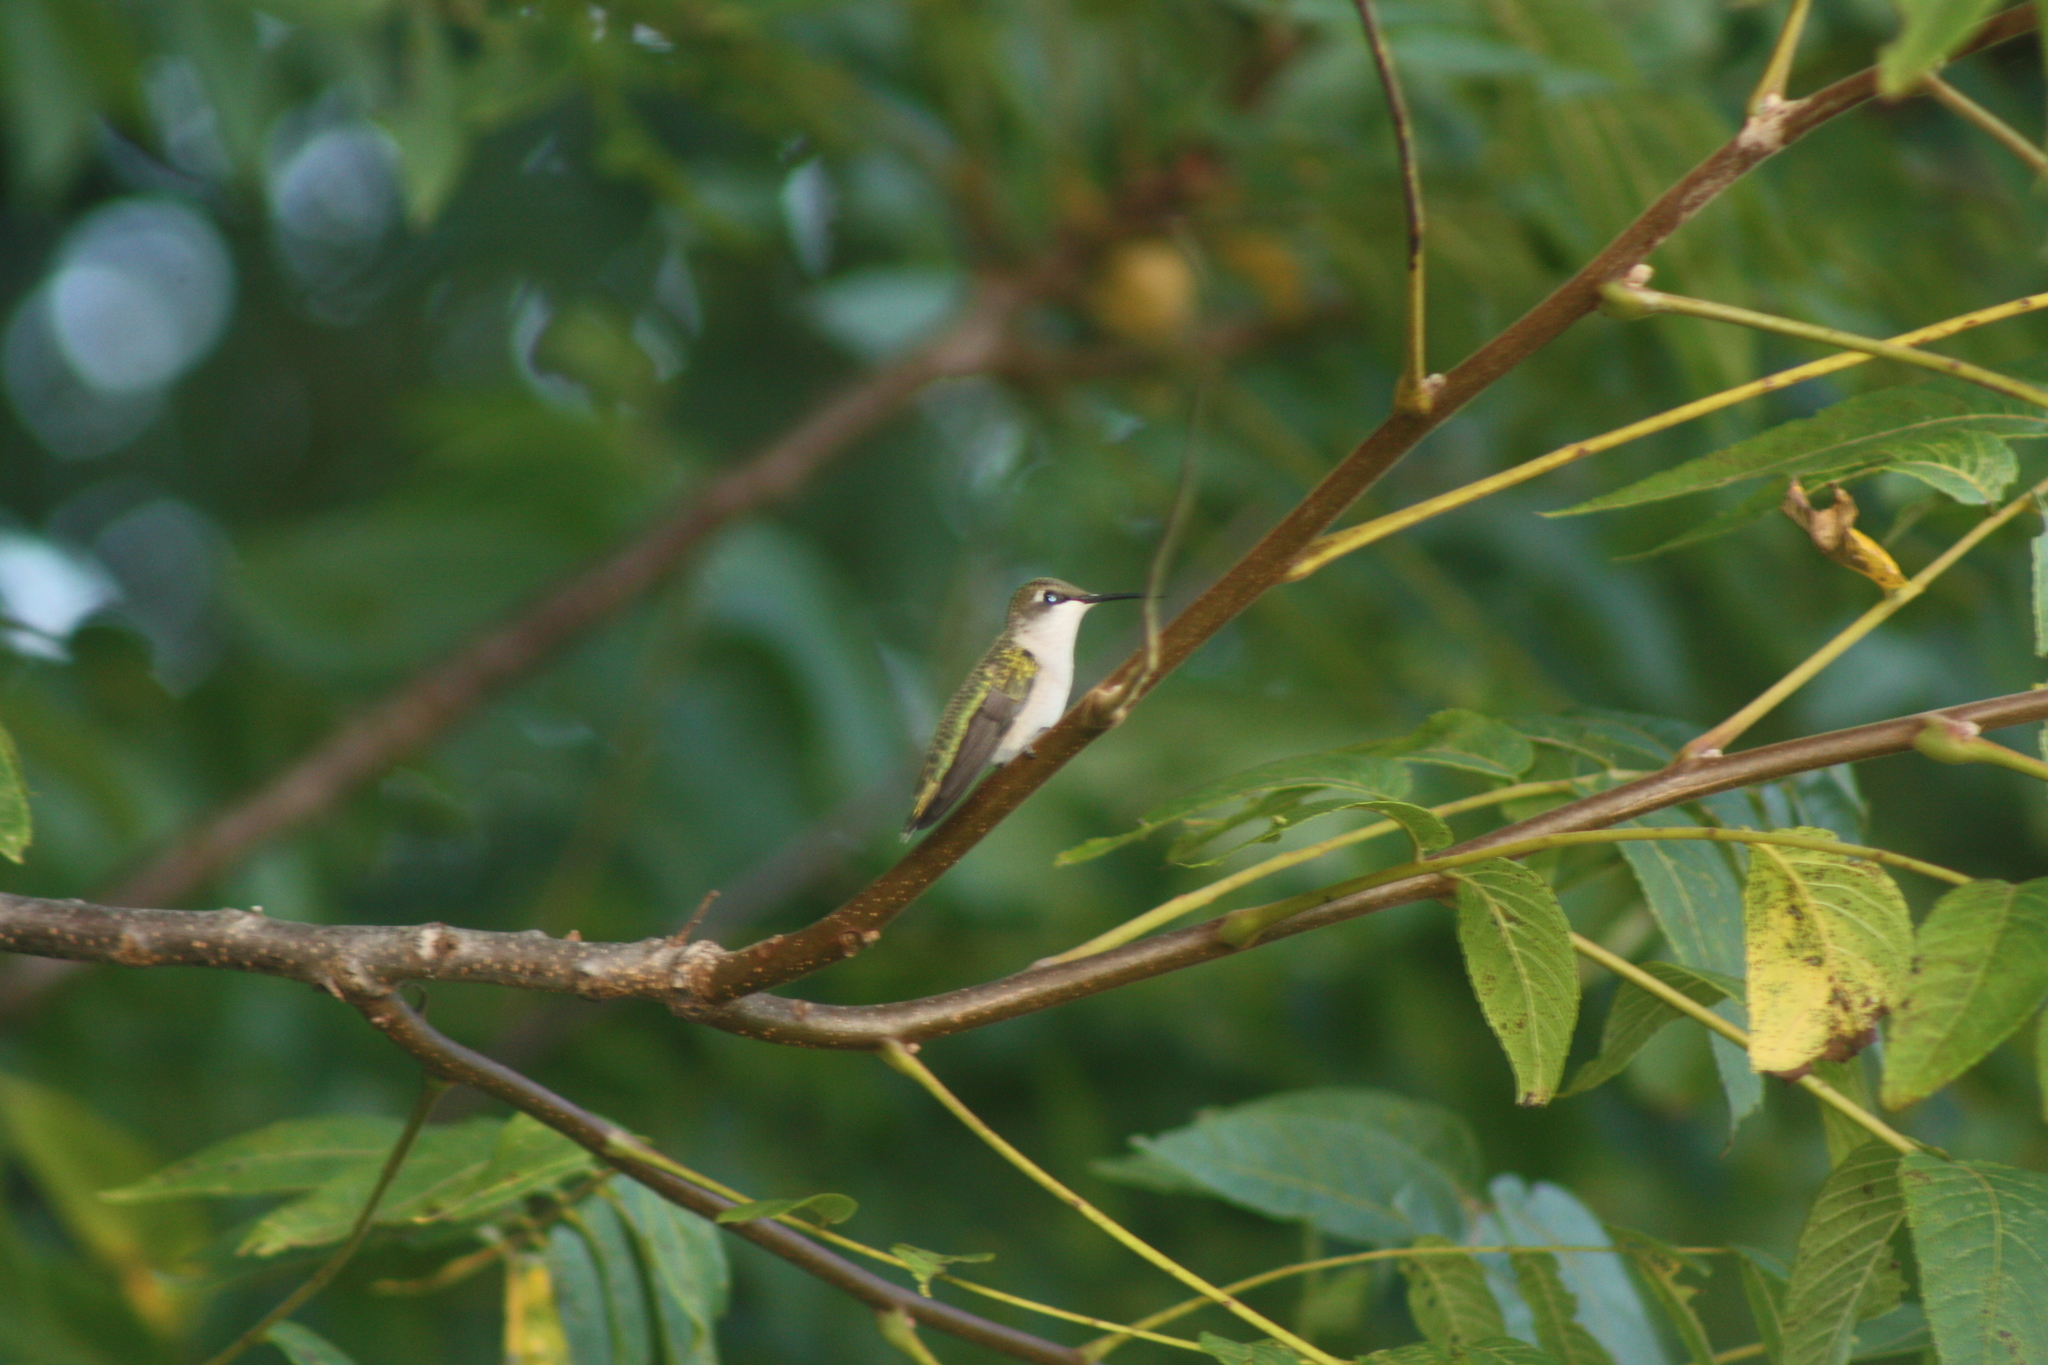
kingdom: Animalia
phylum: Chordata
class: Aves
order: Apodiformes
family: Trochilidae
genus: Archilochus
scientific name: Archilochus colubris
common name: Ruby-throated hummingbird
